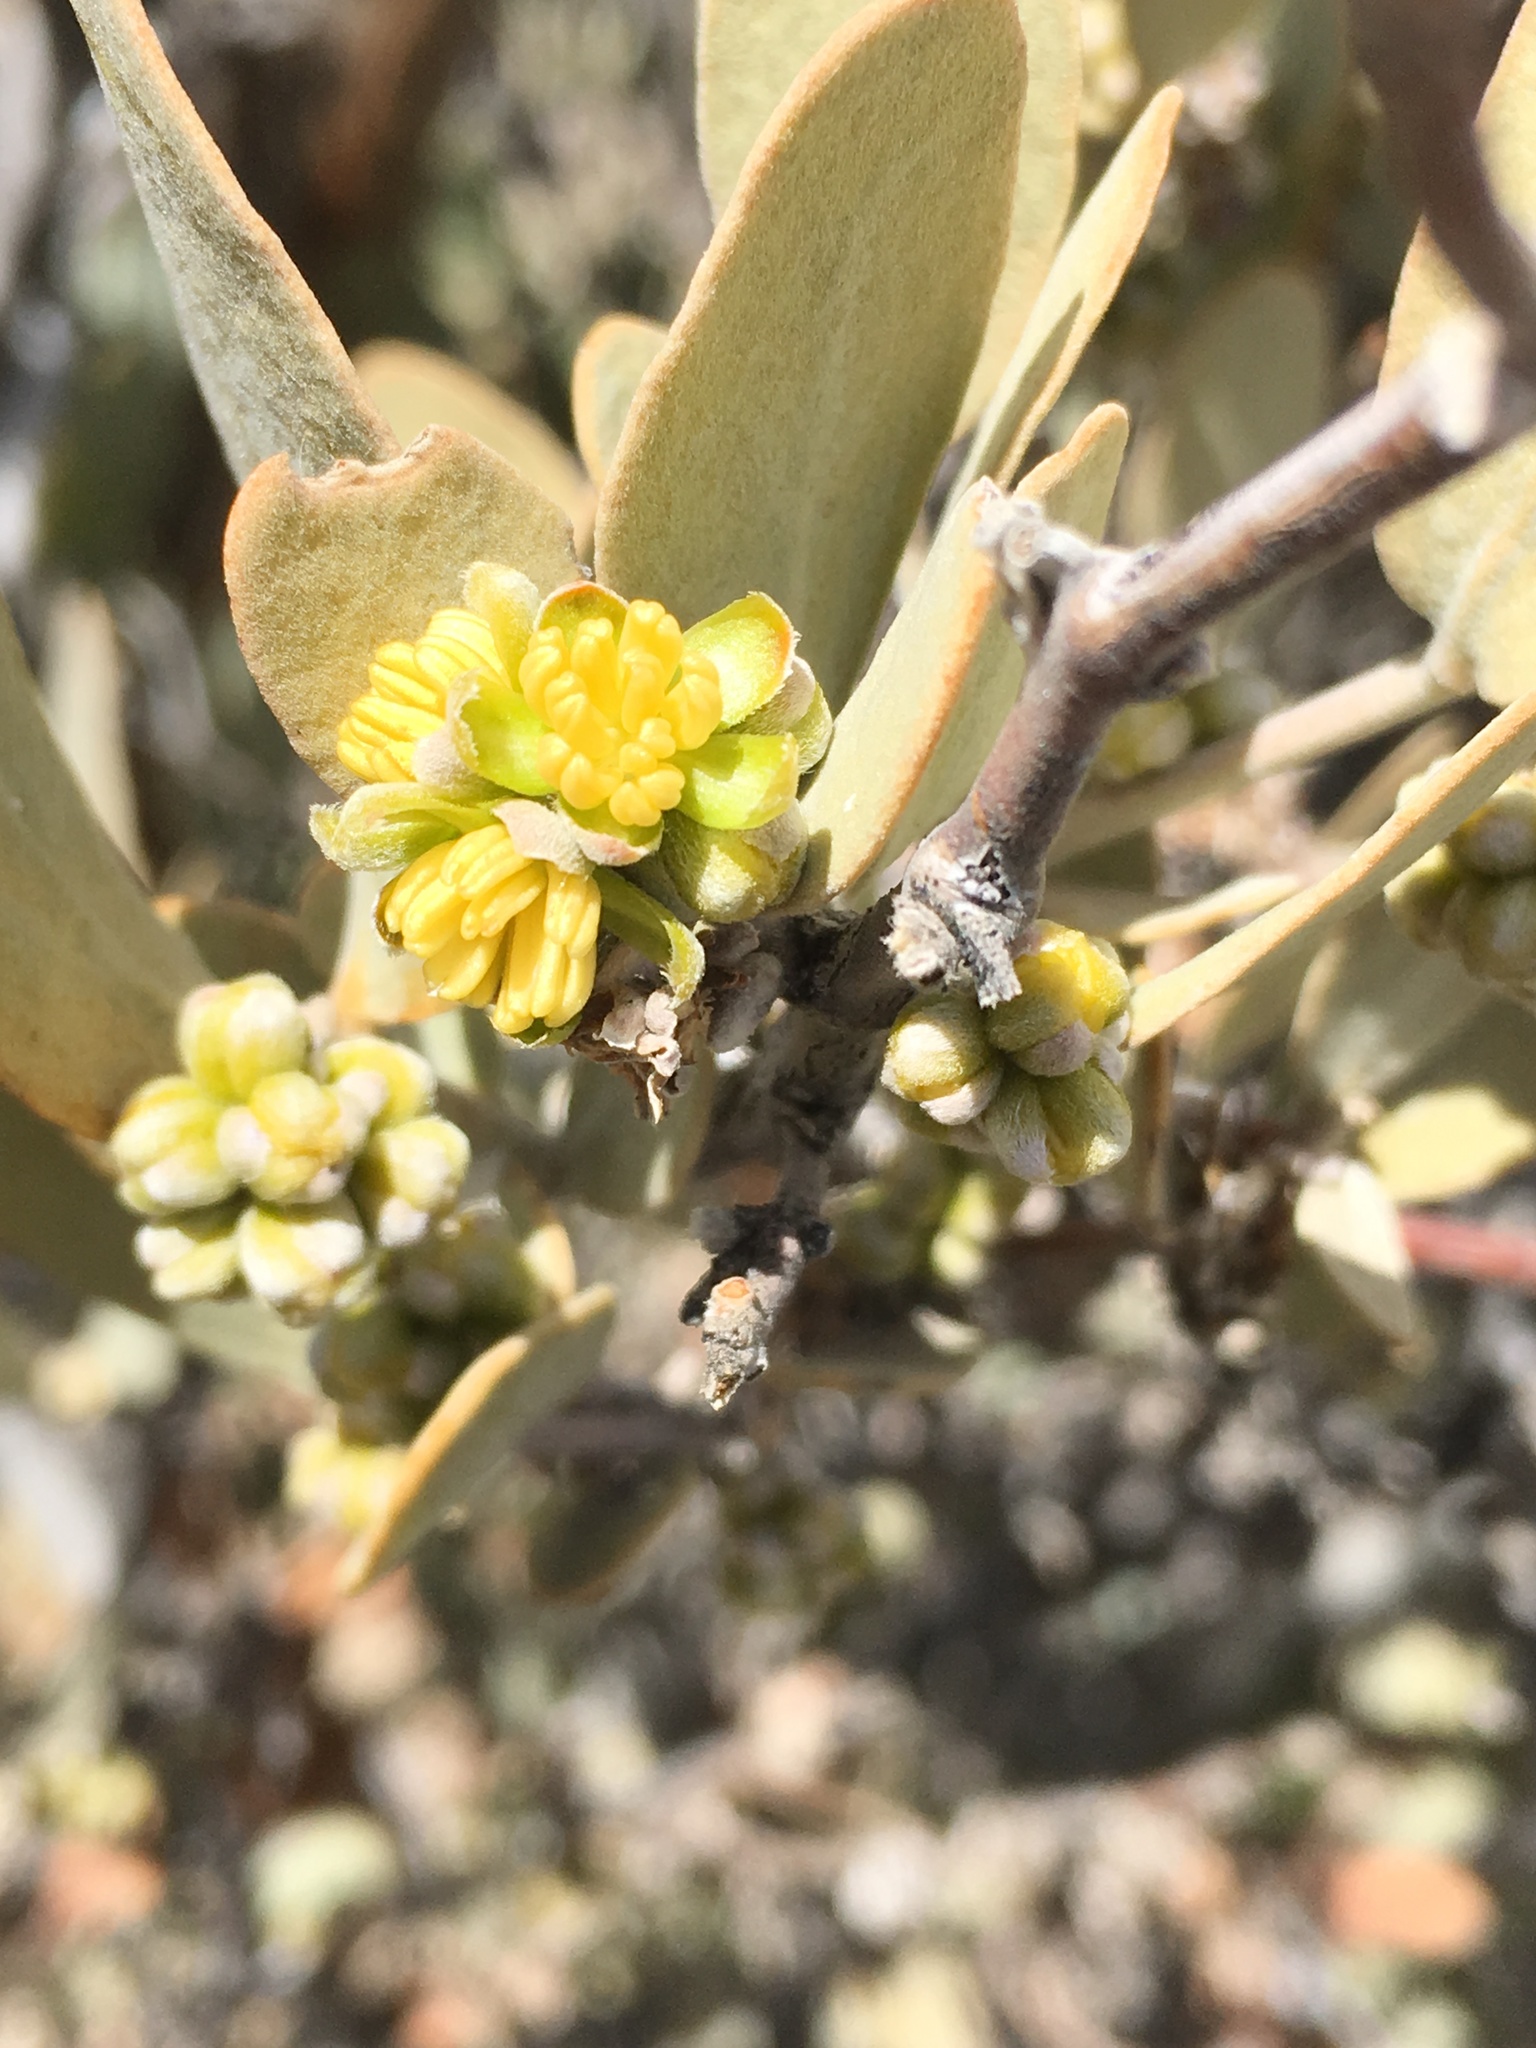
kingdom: Plantae
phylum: Tracheophyta
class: Magnoliopsida
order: Caryophyllales
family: Simmondsiaceae
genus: Simmondsia
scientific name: Simmondsia chinensis
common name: Jojoba
